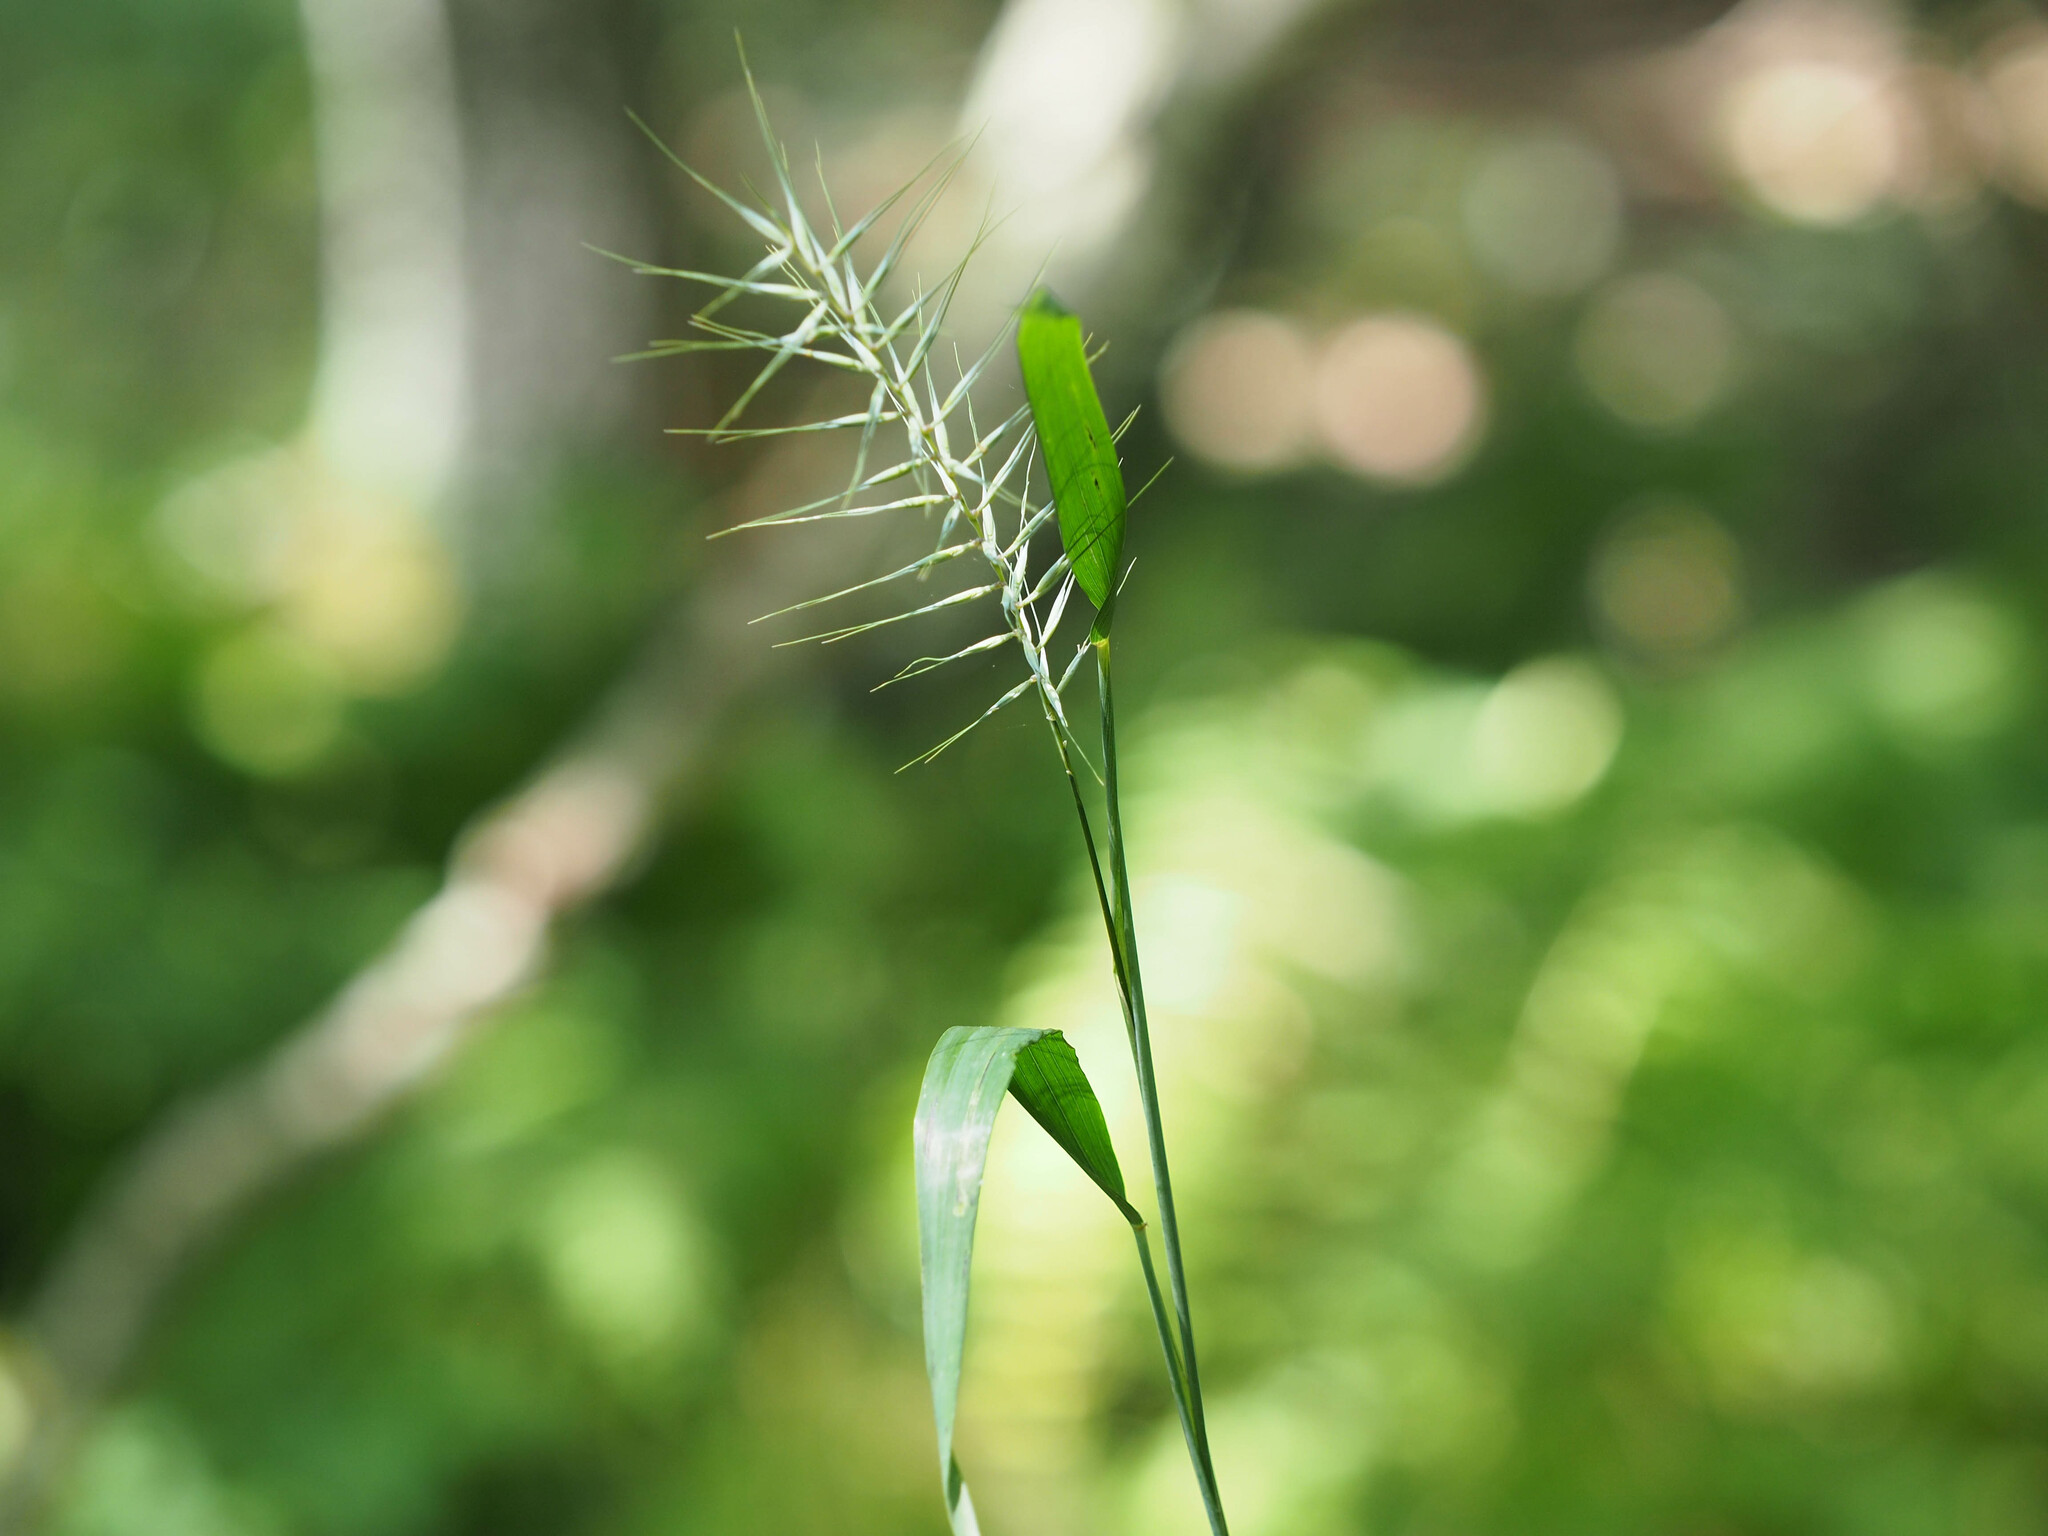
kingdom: Plantae
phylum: Tracheophyta
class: Liliopsida
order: Poales
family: Poaceae
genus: Elymus
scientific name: Elymus hystrix
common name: Bottlebrush grass
